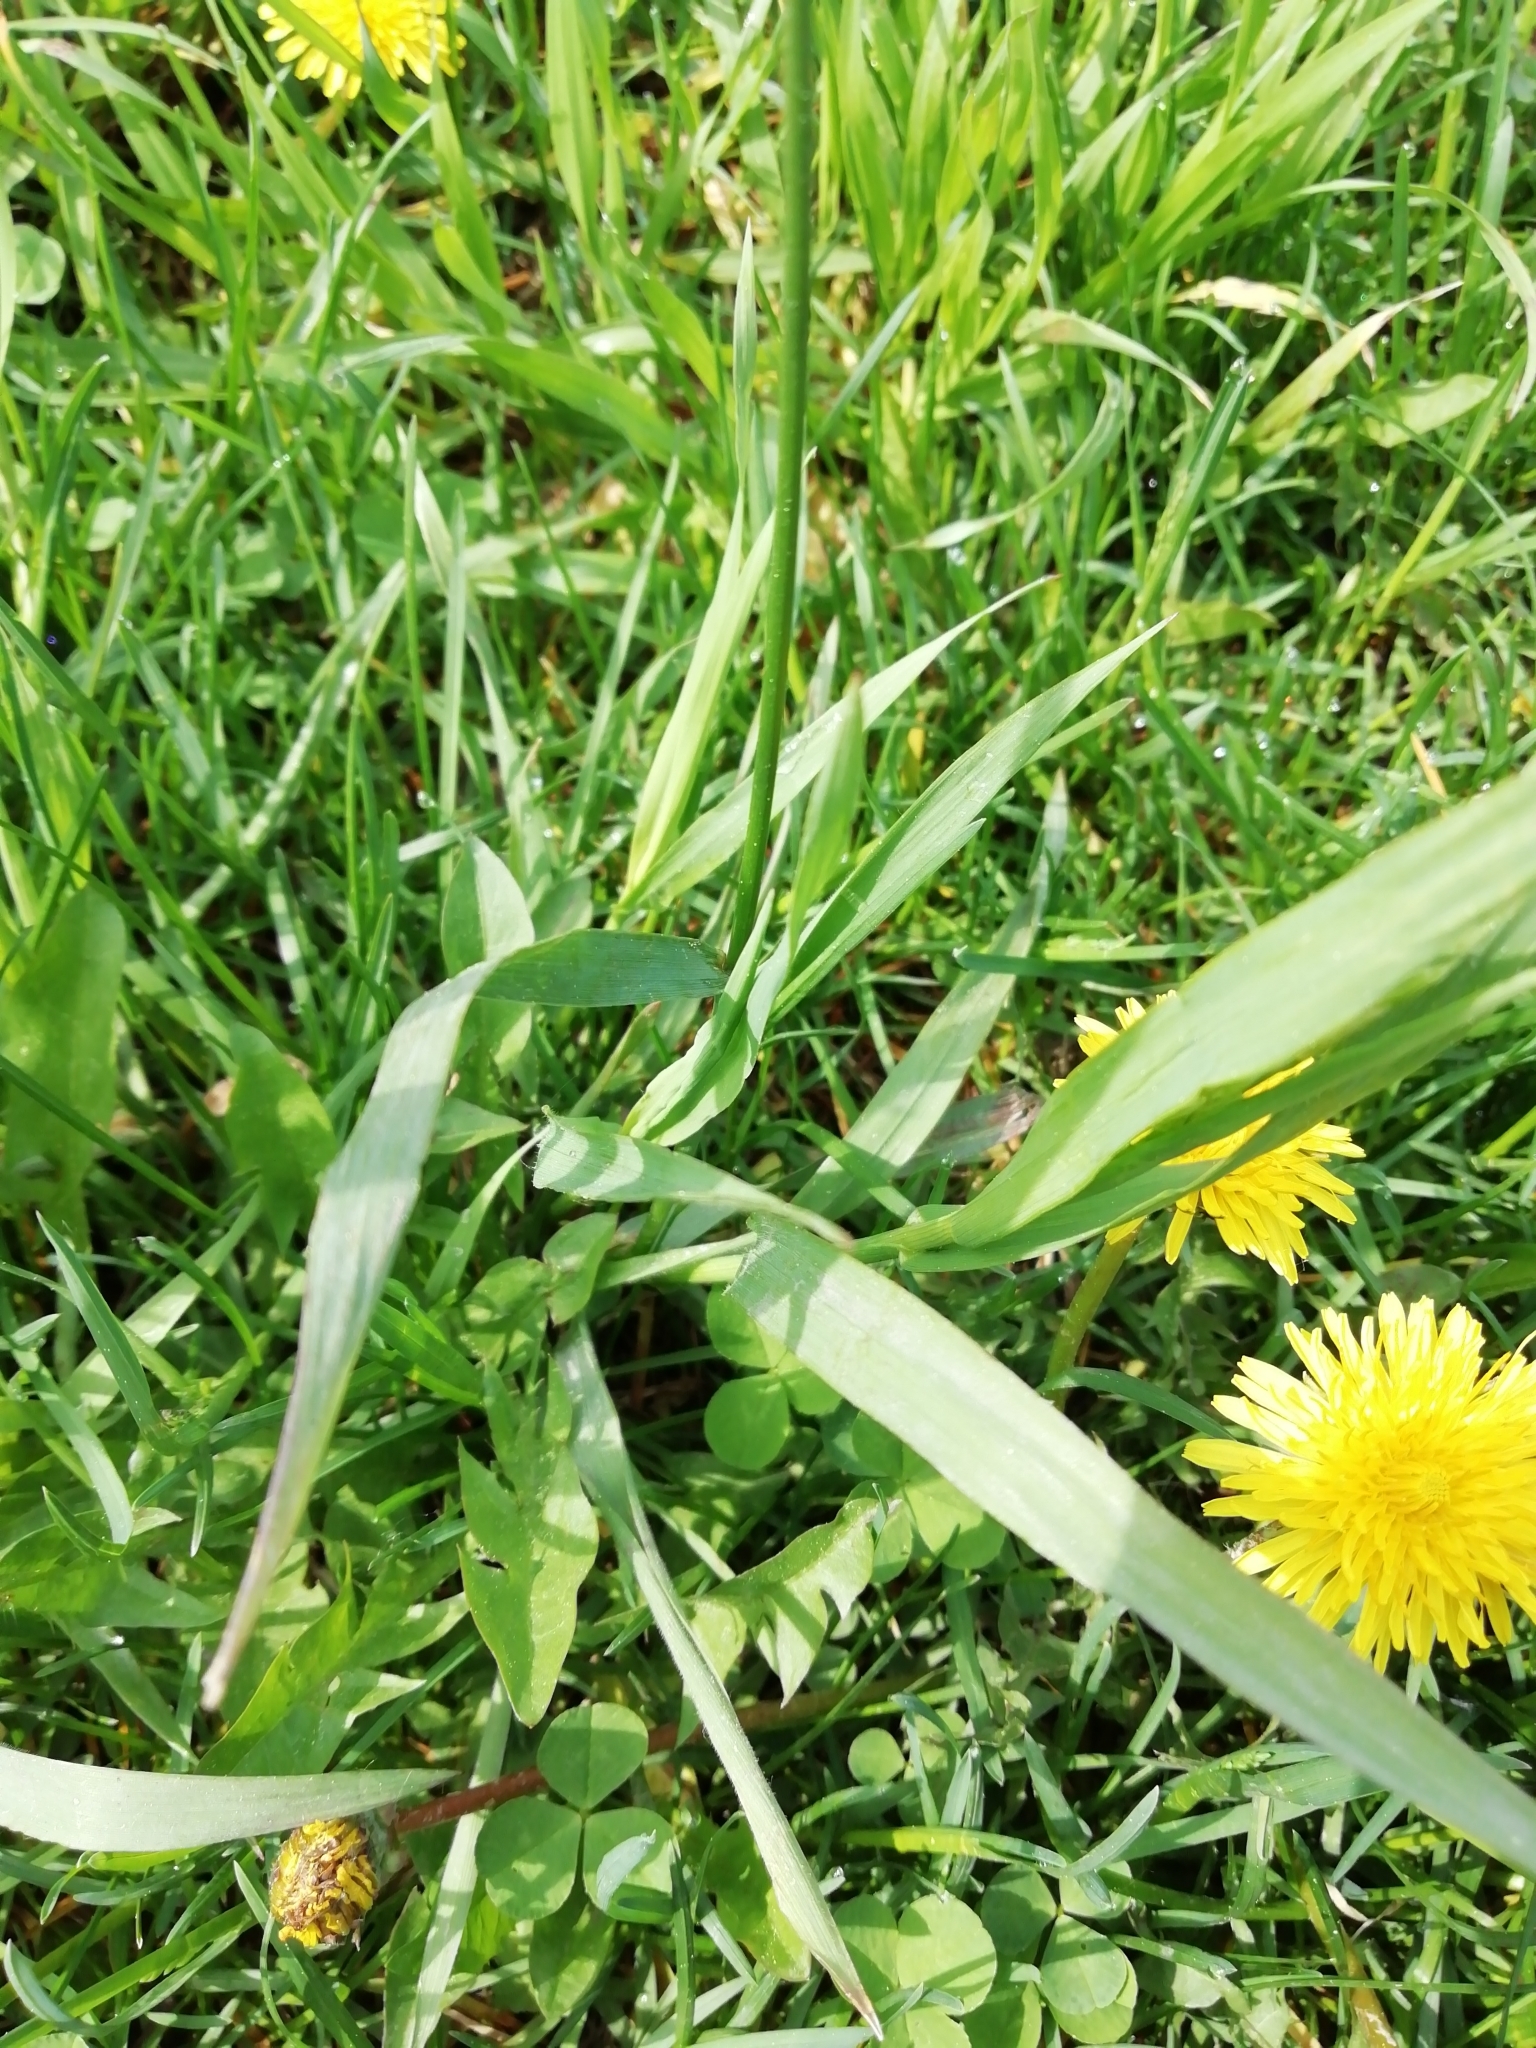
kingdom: Plantae
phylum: Tracheophyta
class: Liliopsida
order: Poales
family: Poaceae
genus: Bromus
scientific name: Bromus inermis
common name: Smooth brome
